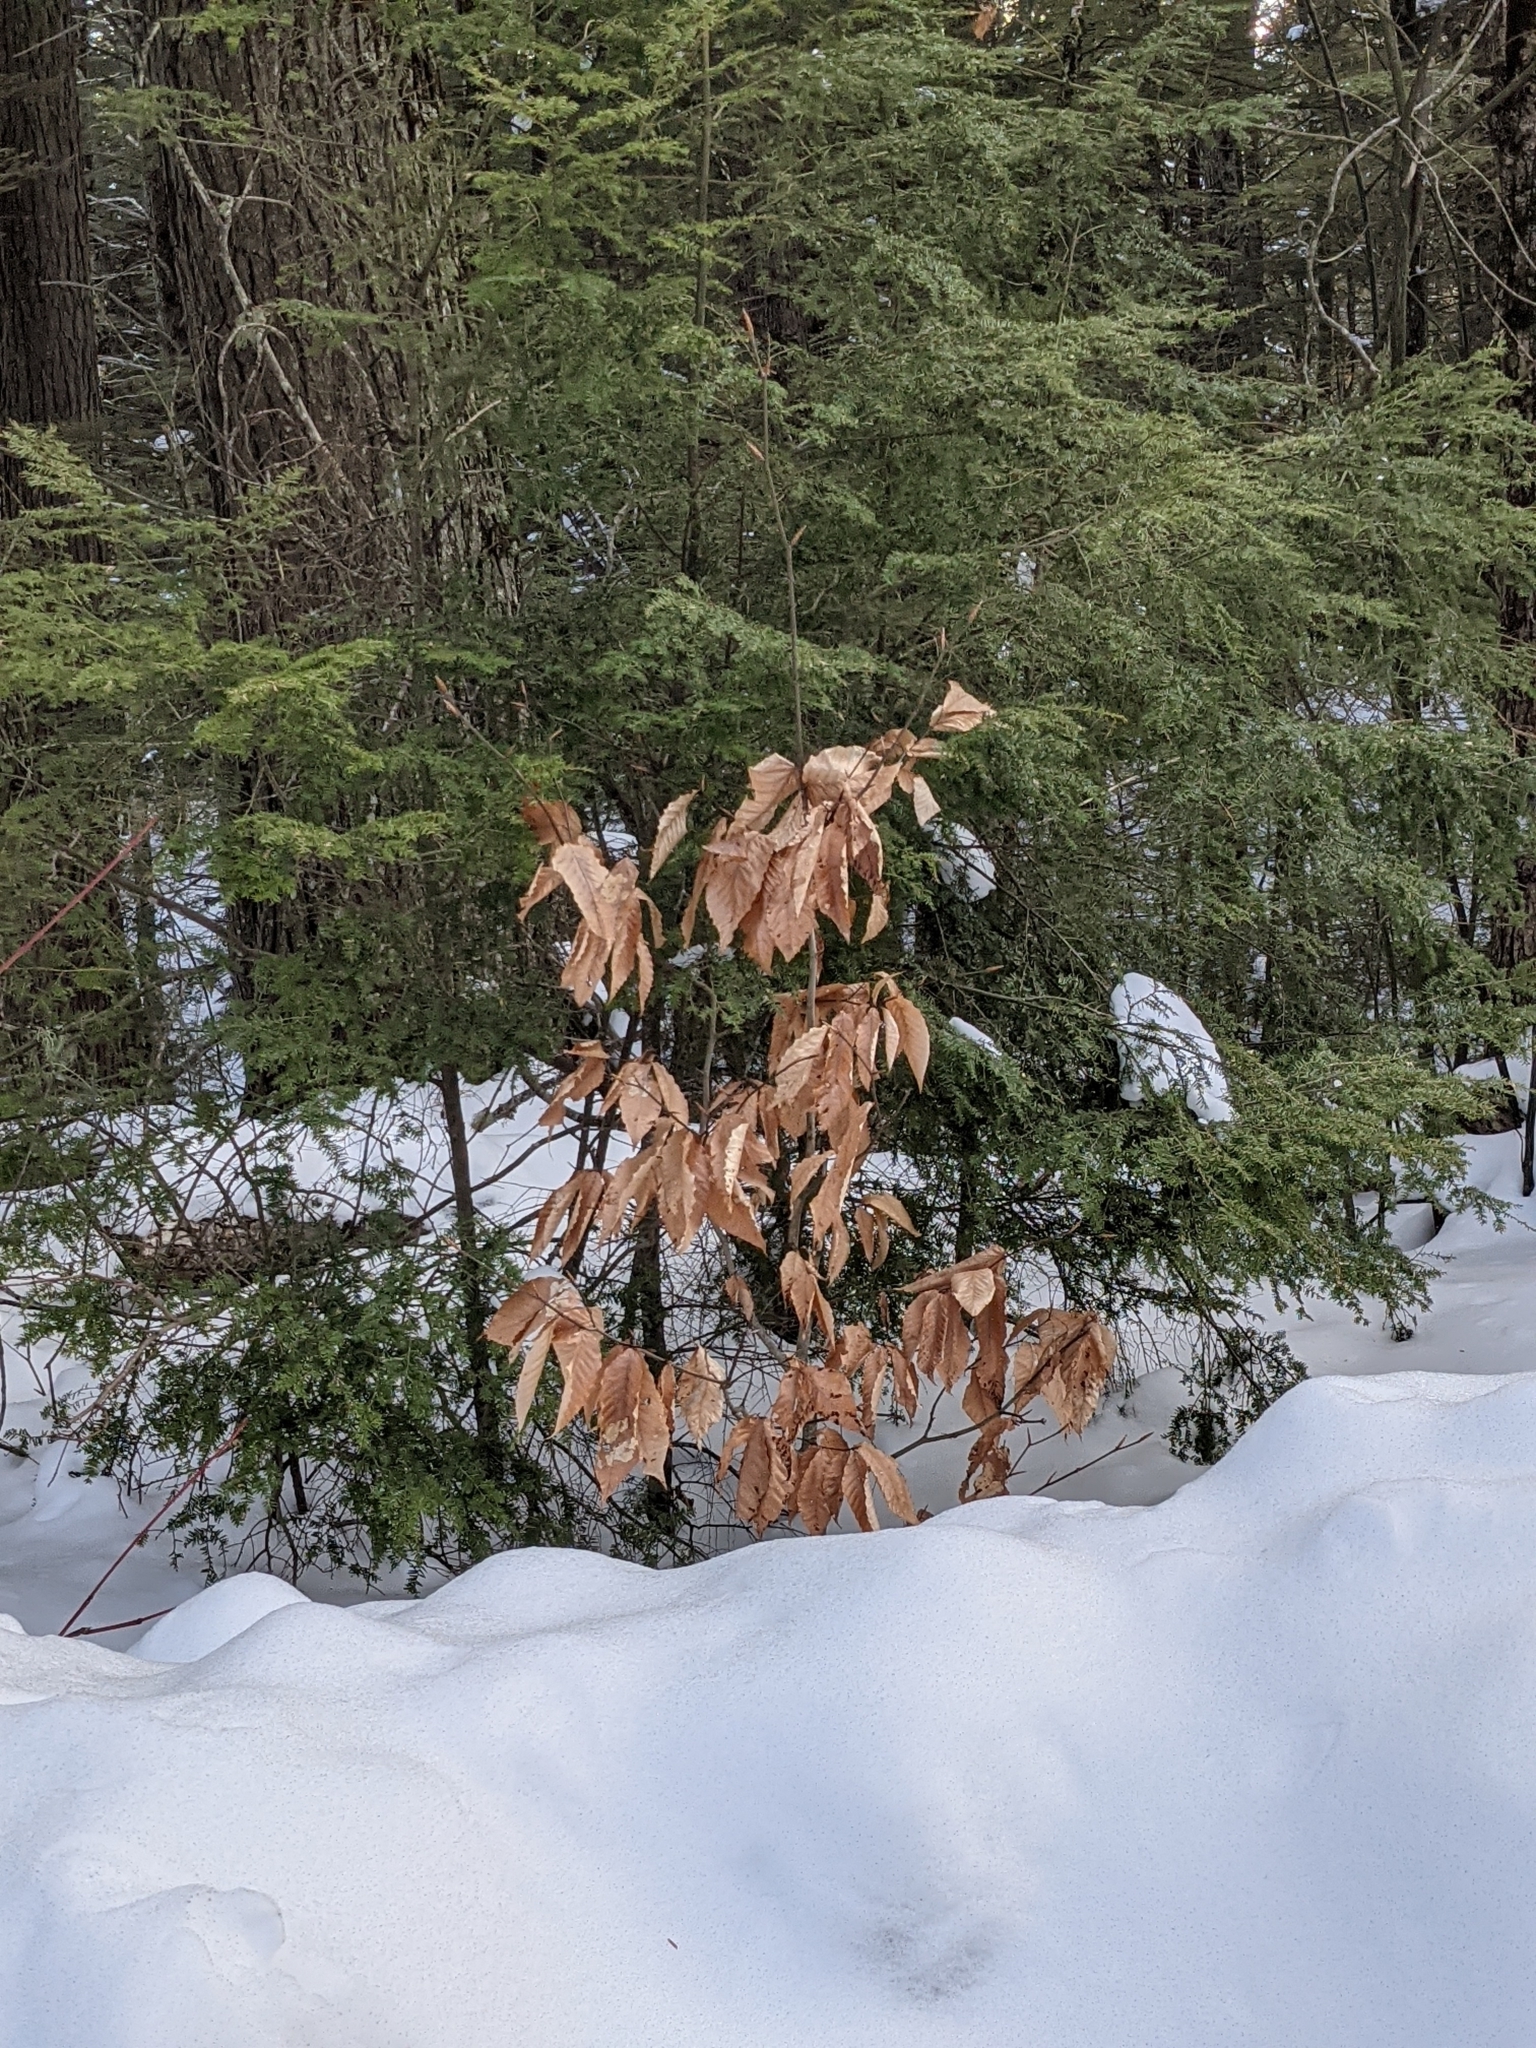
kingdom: Plantae
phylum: Tracheophyta
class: Magnoliopsida
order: Fagales
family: Fagaceae
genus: Fagus
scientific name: Fagus grandifolia
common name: American beech
